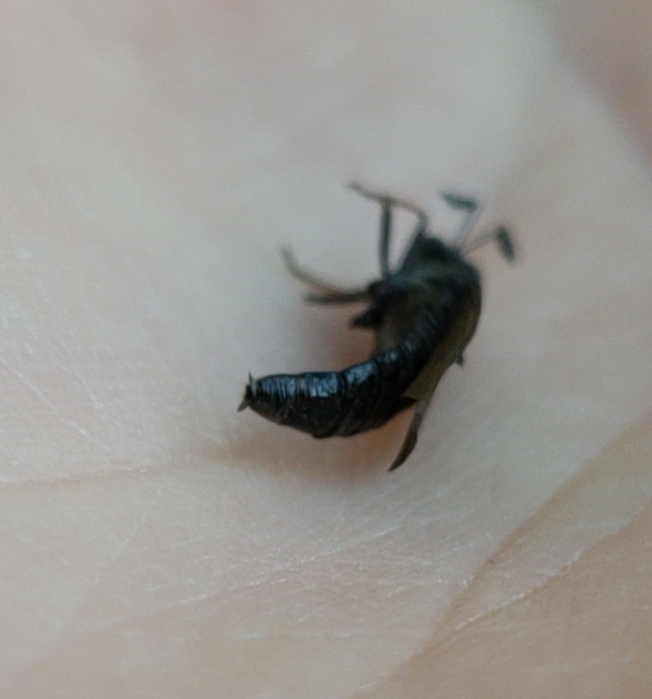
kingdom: Animalia
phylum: Arthropoda
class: Insecta
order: Diptera
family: Mydidae
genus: Phyllomydas
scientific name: Phyllomydas quercus
